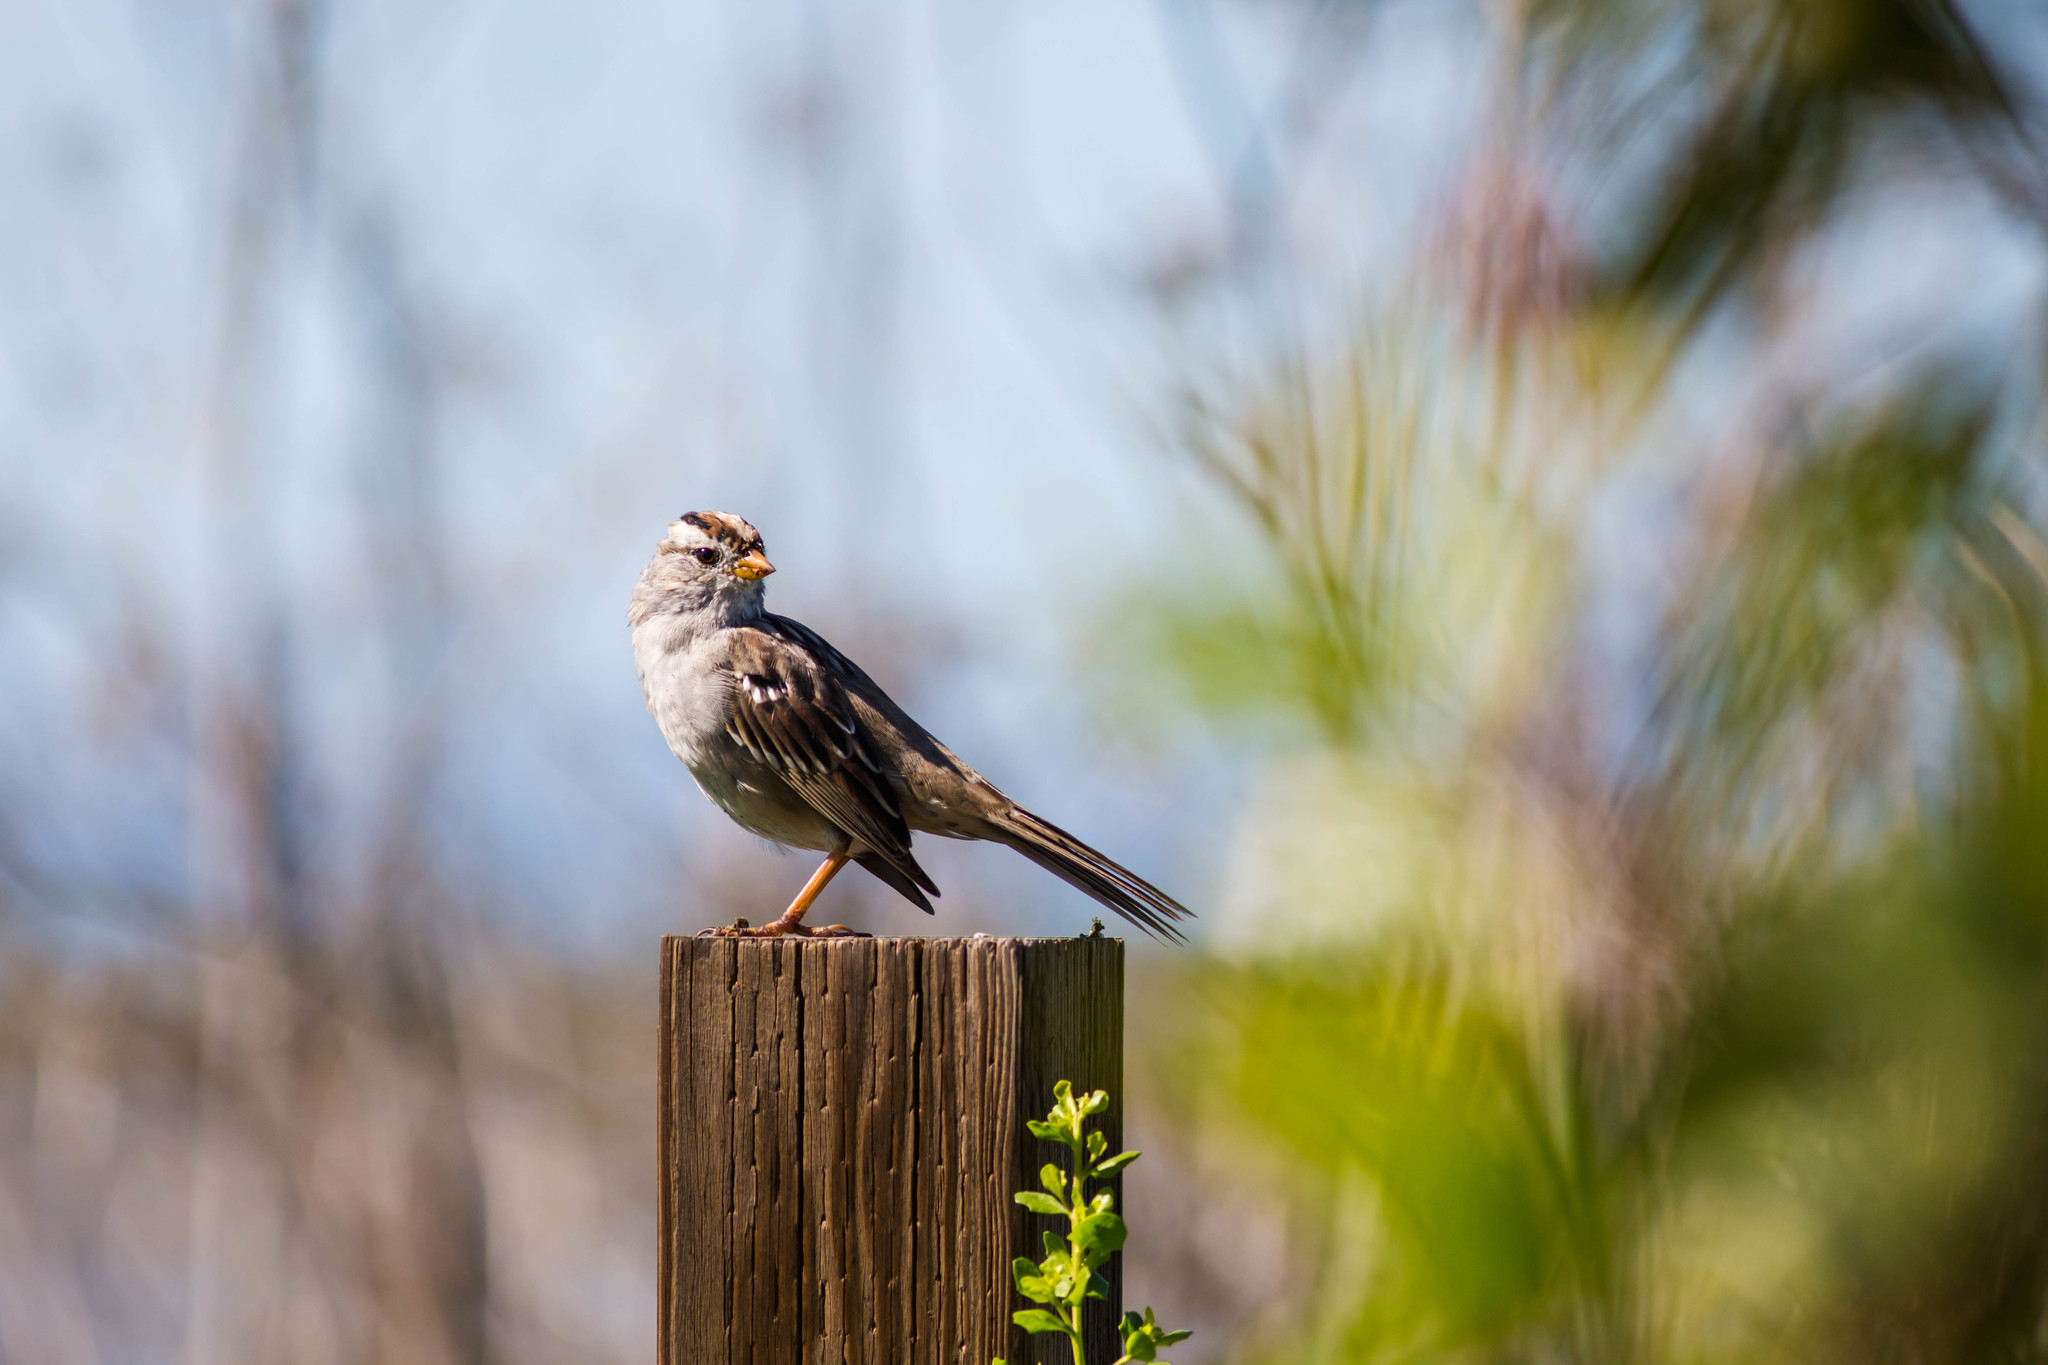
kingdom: Animalia
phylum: Chordata
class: Aves
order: Passeriformes
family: Passerellidae
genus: Zonotrichia
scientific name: Zonotrichia leucophrys
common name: White-crowned sparrow
